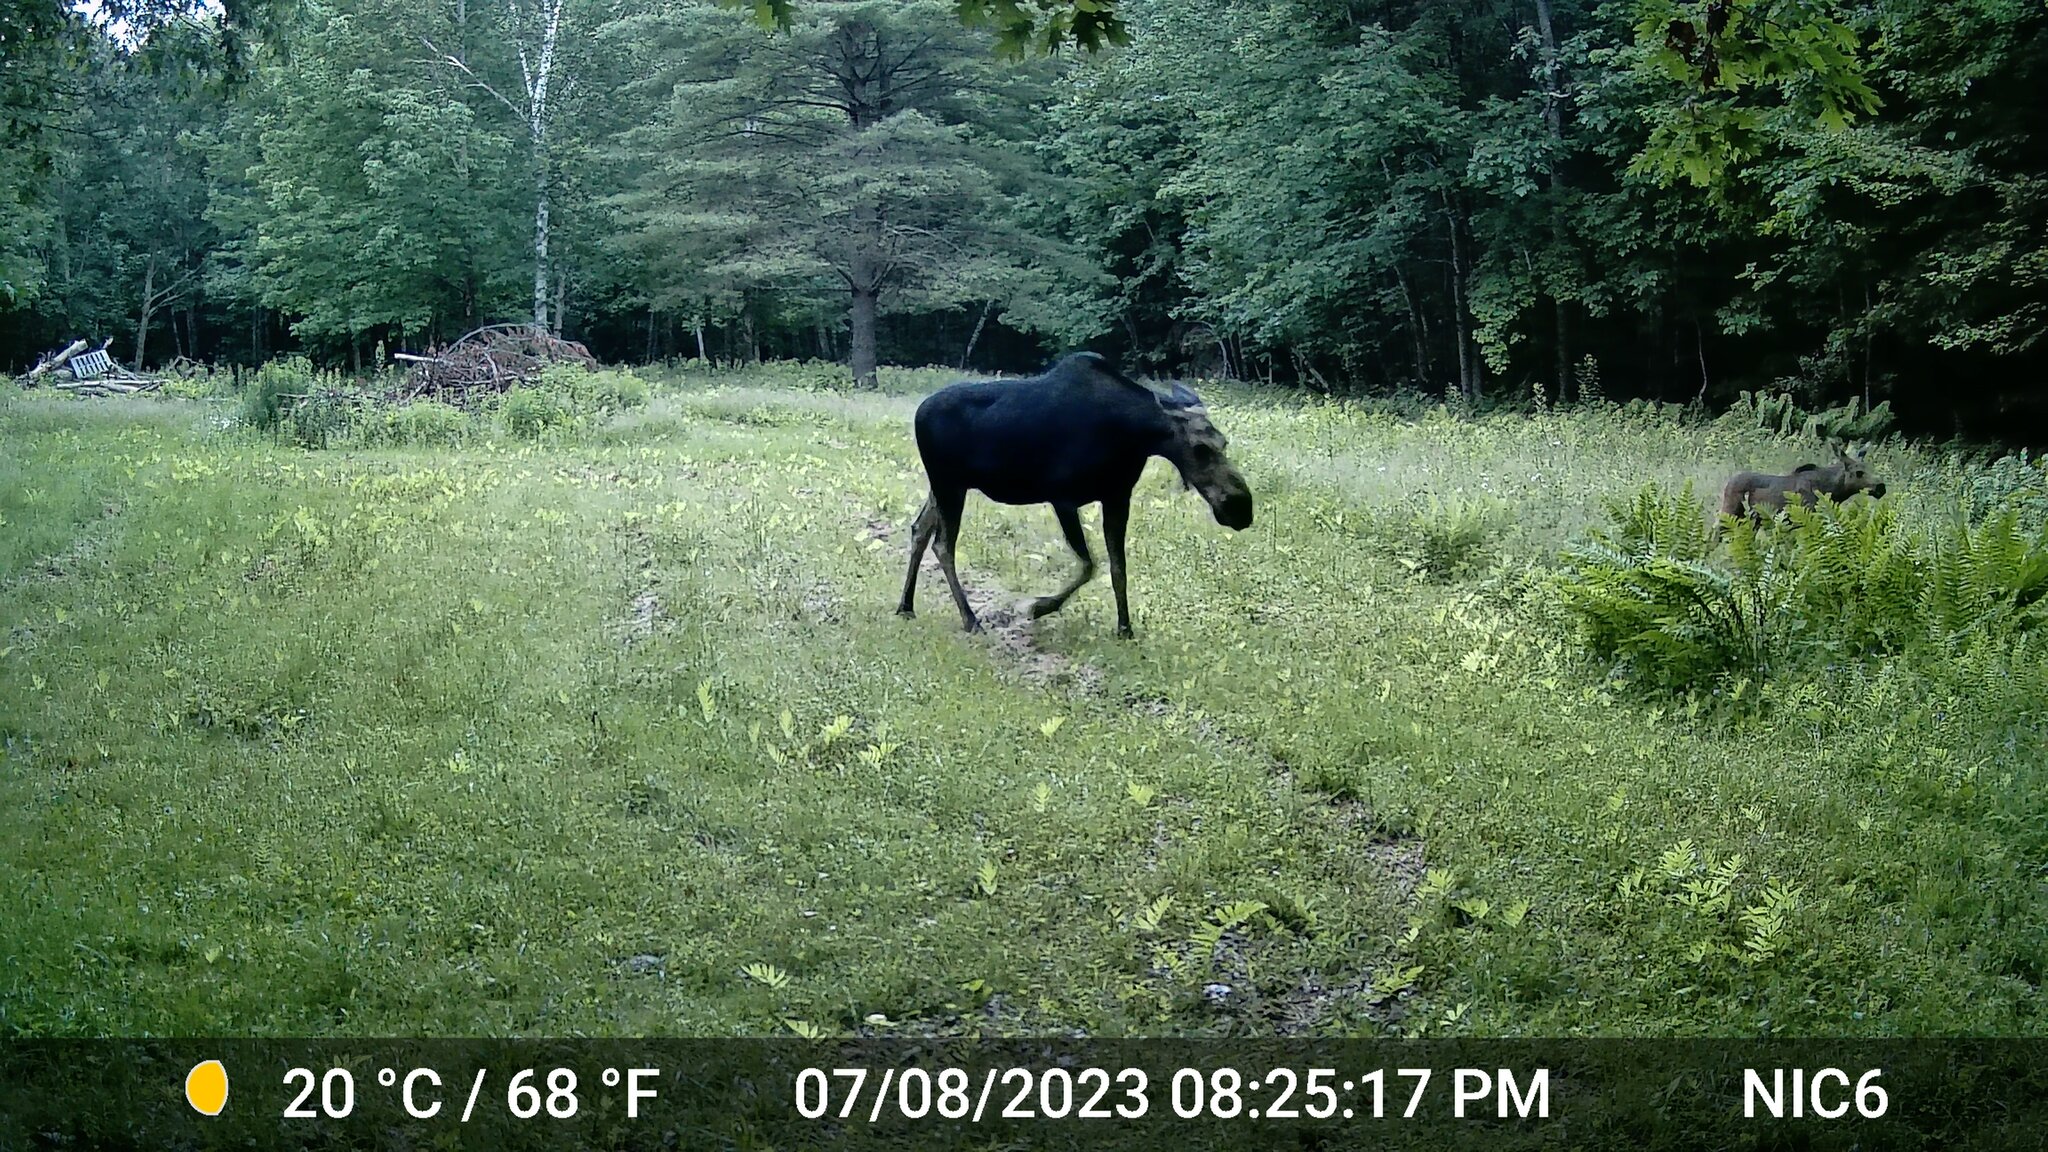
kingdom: Animalia
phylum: Chordata
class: Mammalia
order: Artiodactyla
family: Cervidae
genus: Alces
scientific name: Alces alces
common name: Moose
